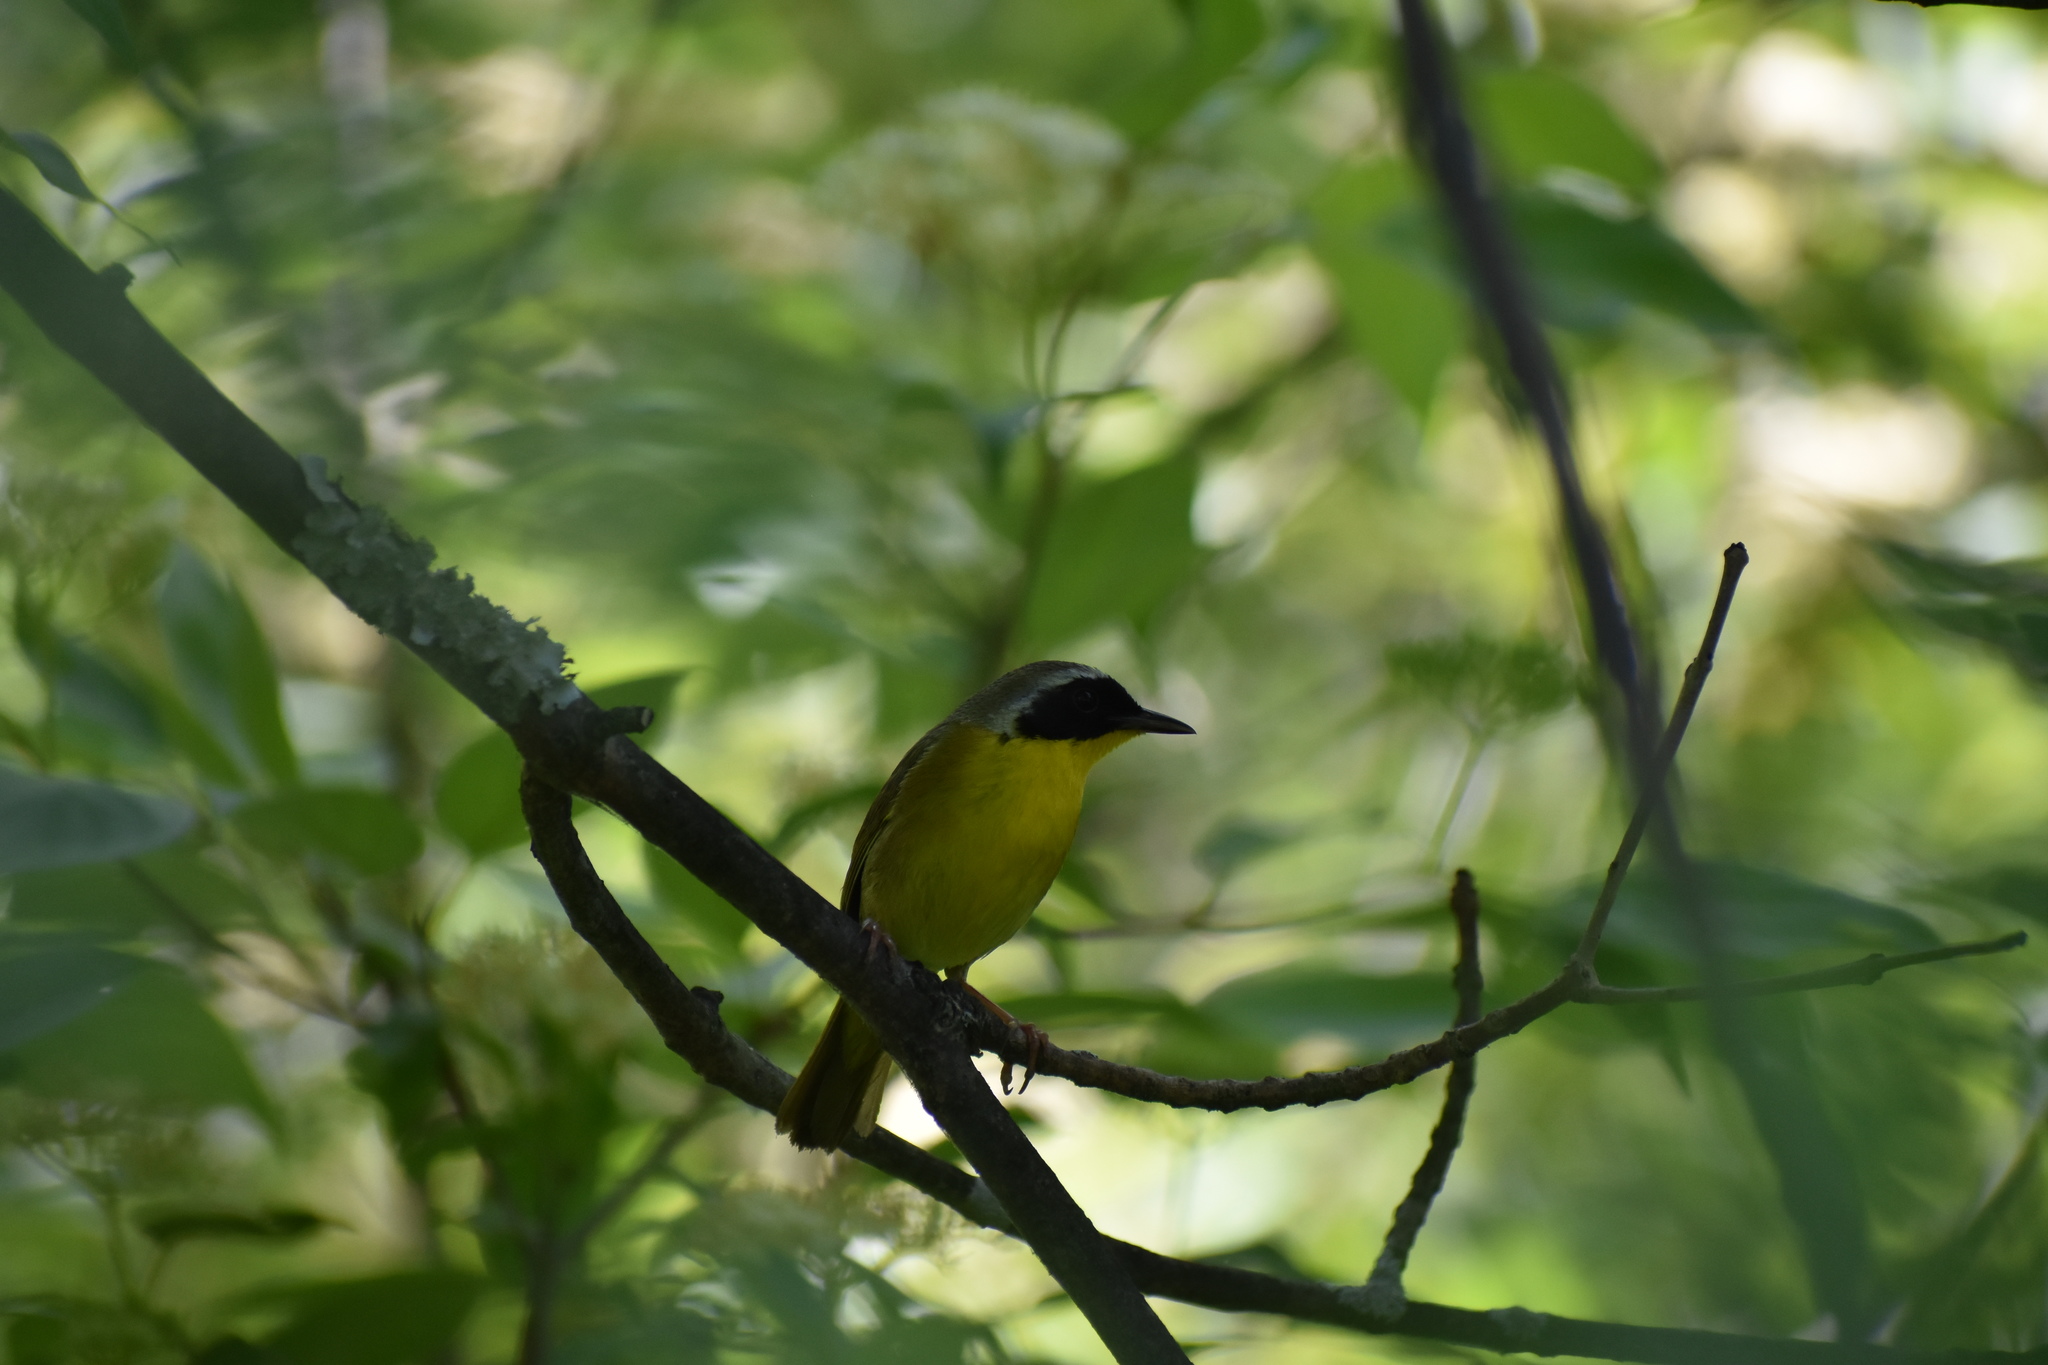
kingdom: Animalia
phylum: Chordata
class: Aves
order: Passeriformes
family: Parulidae
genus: Geothlypis
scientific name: Geothlypis trichas
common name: Common yellowthroat
